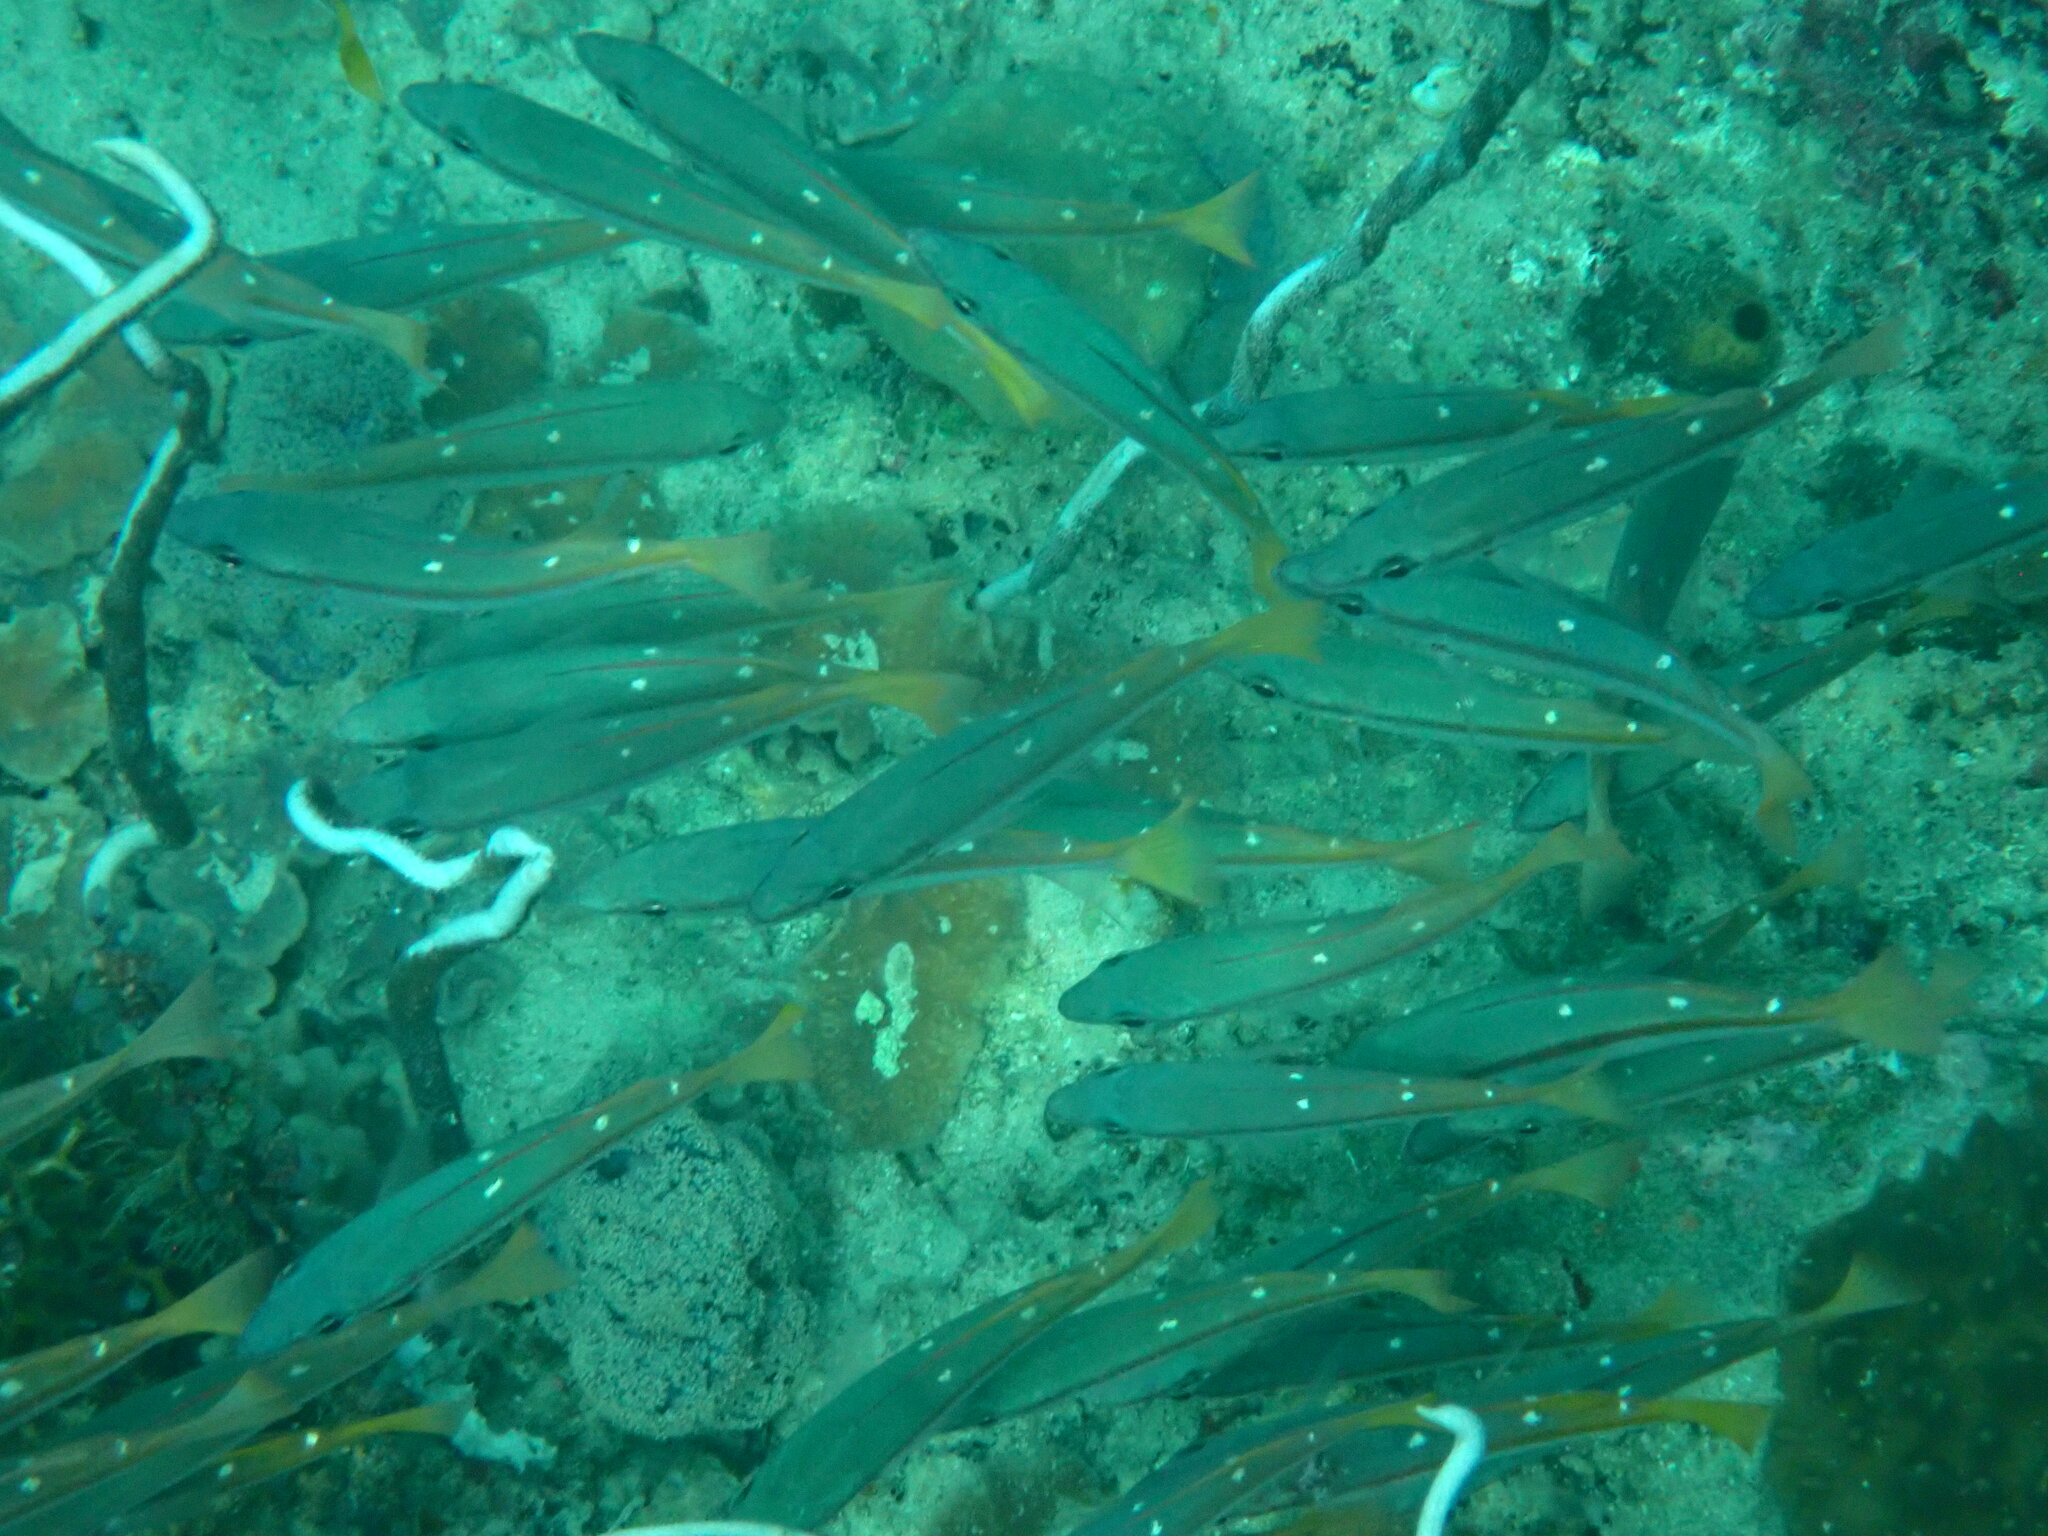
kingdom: Animalia
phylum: Chordata
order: Perciformes
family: Lutjanidae
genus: Lutjanus
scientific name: Lutjanus biguttatus
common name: Two-spot snapper
